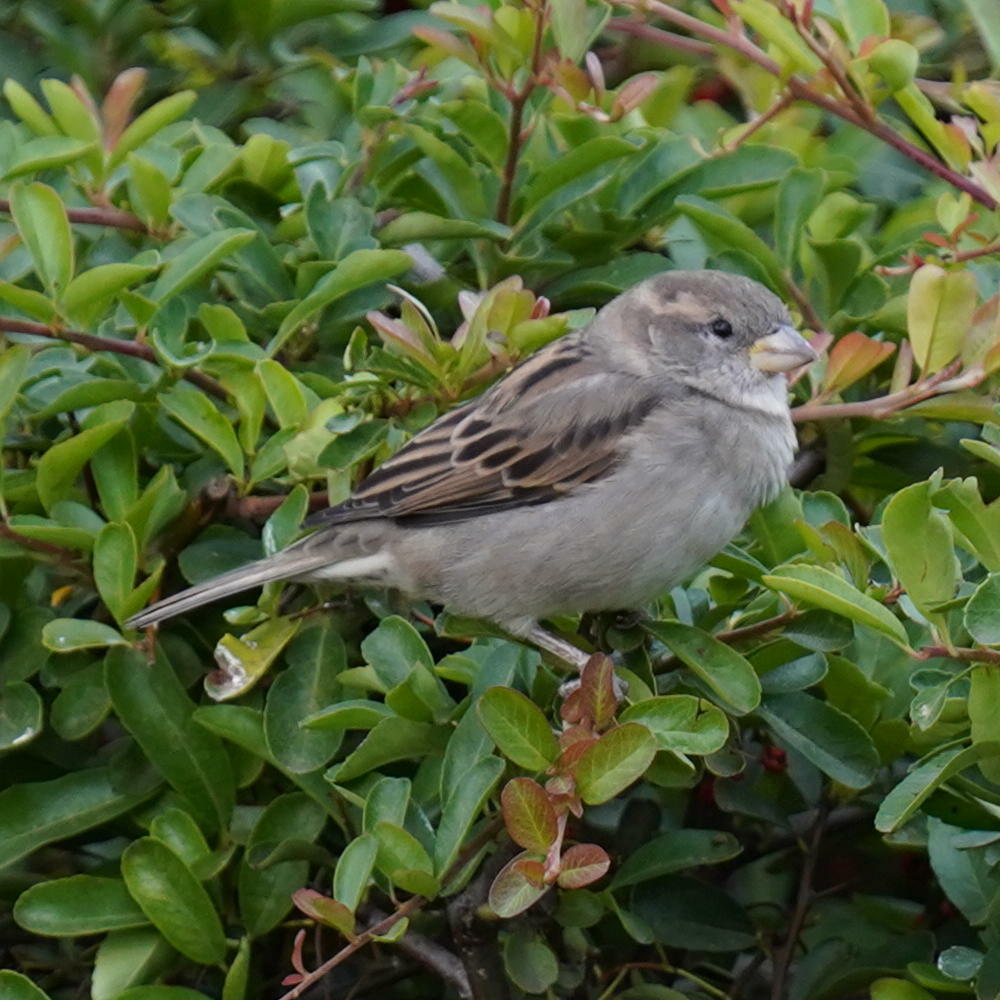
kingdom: Animalia
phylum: Chordata
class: Aves
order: Passeriformes
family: Passeridae
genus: Passer
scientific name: Passer domesticus
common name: House sparrow
